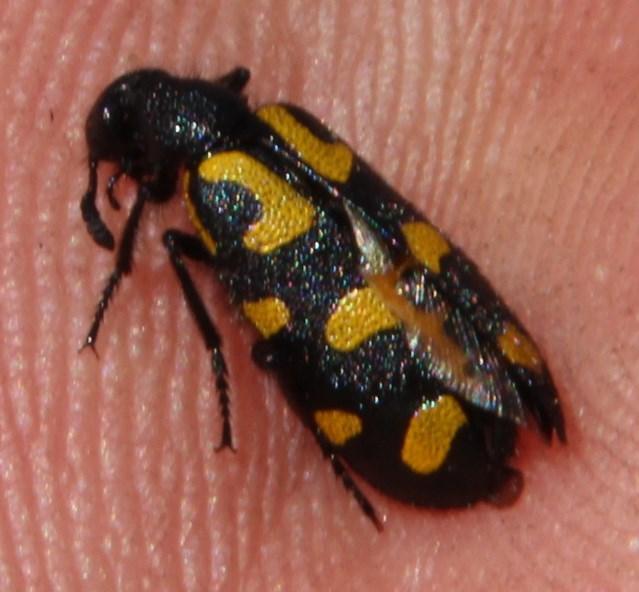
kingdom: Animalia
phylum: Arthropoda
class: Insecta
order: Coleoptera
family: Meloidae
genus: Ceroctis
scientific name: Ceroctis capensis
